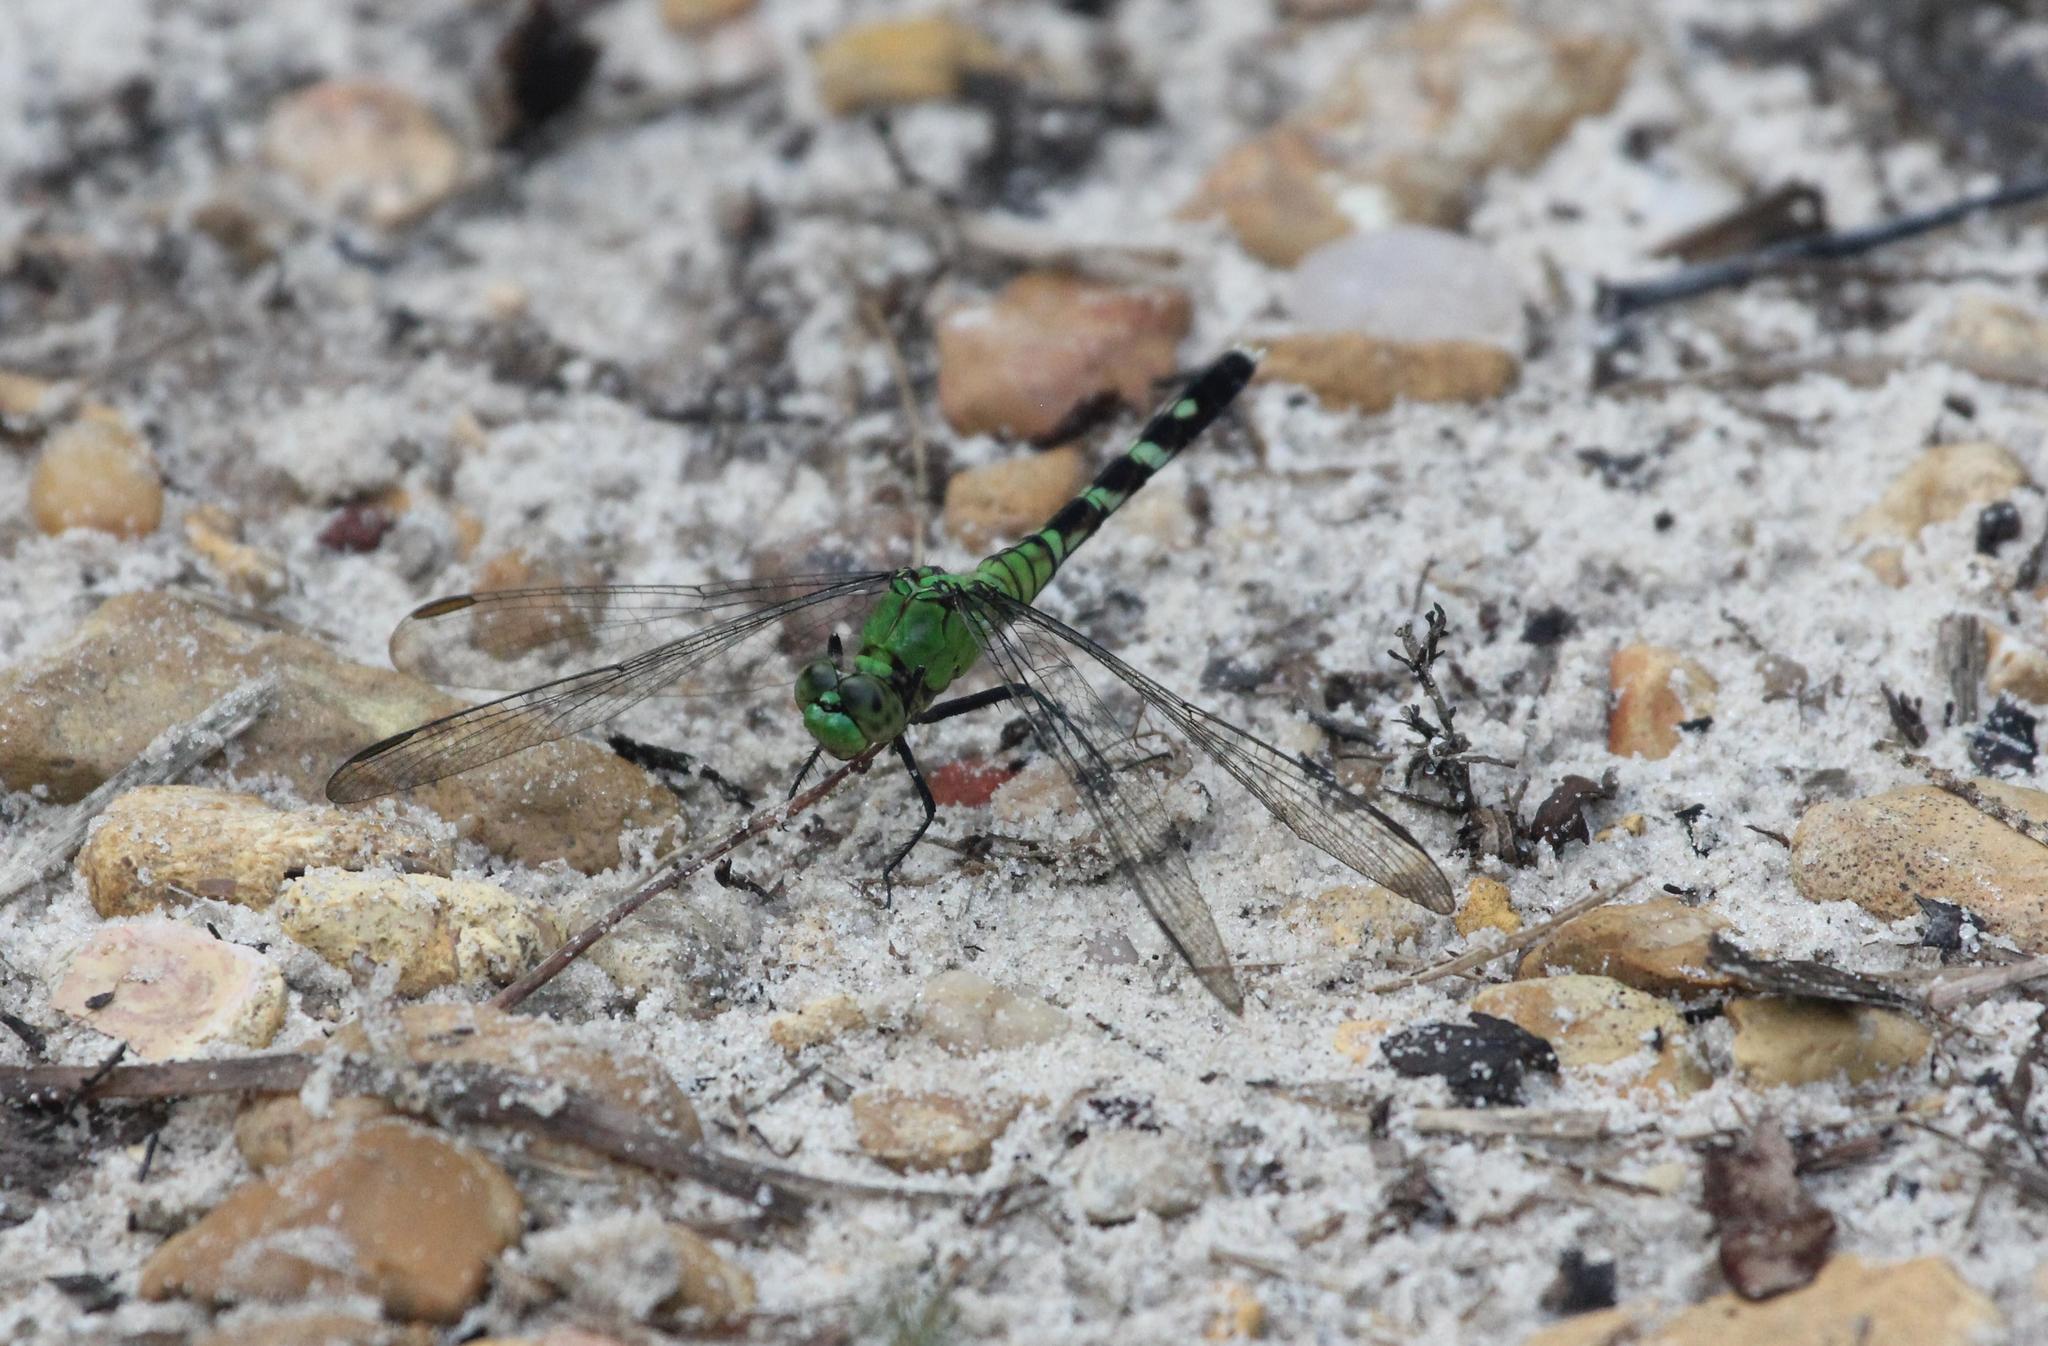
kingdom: Animalia
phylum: Arthropoda
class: Insecta
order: Odonata
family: Libellulidae
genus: Erythemis
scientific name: Erythemis simplicicollis
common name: Eastern pondhawk
